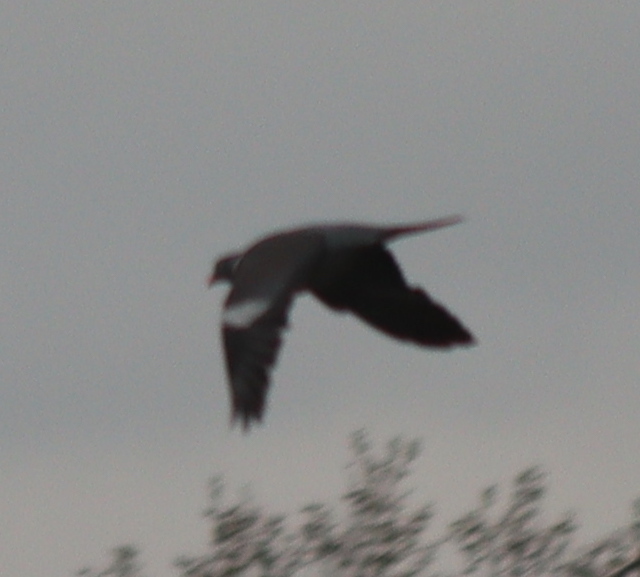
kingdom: Animalia
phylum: Chordata
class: Aves
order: Columbiformes
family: Columbidae
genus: Columba
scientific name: Columba palumbus
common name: Common wood pigeon
